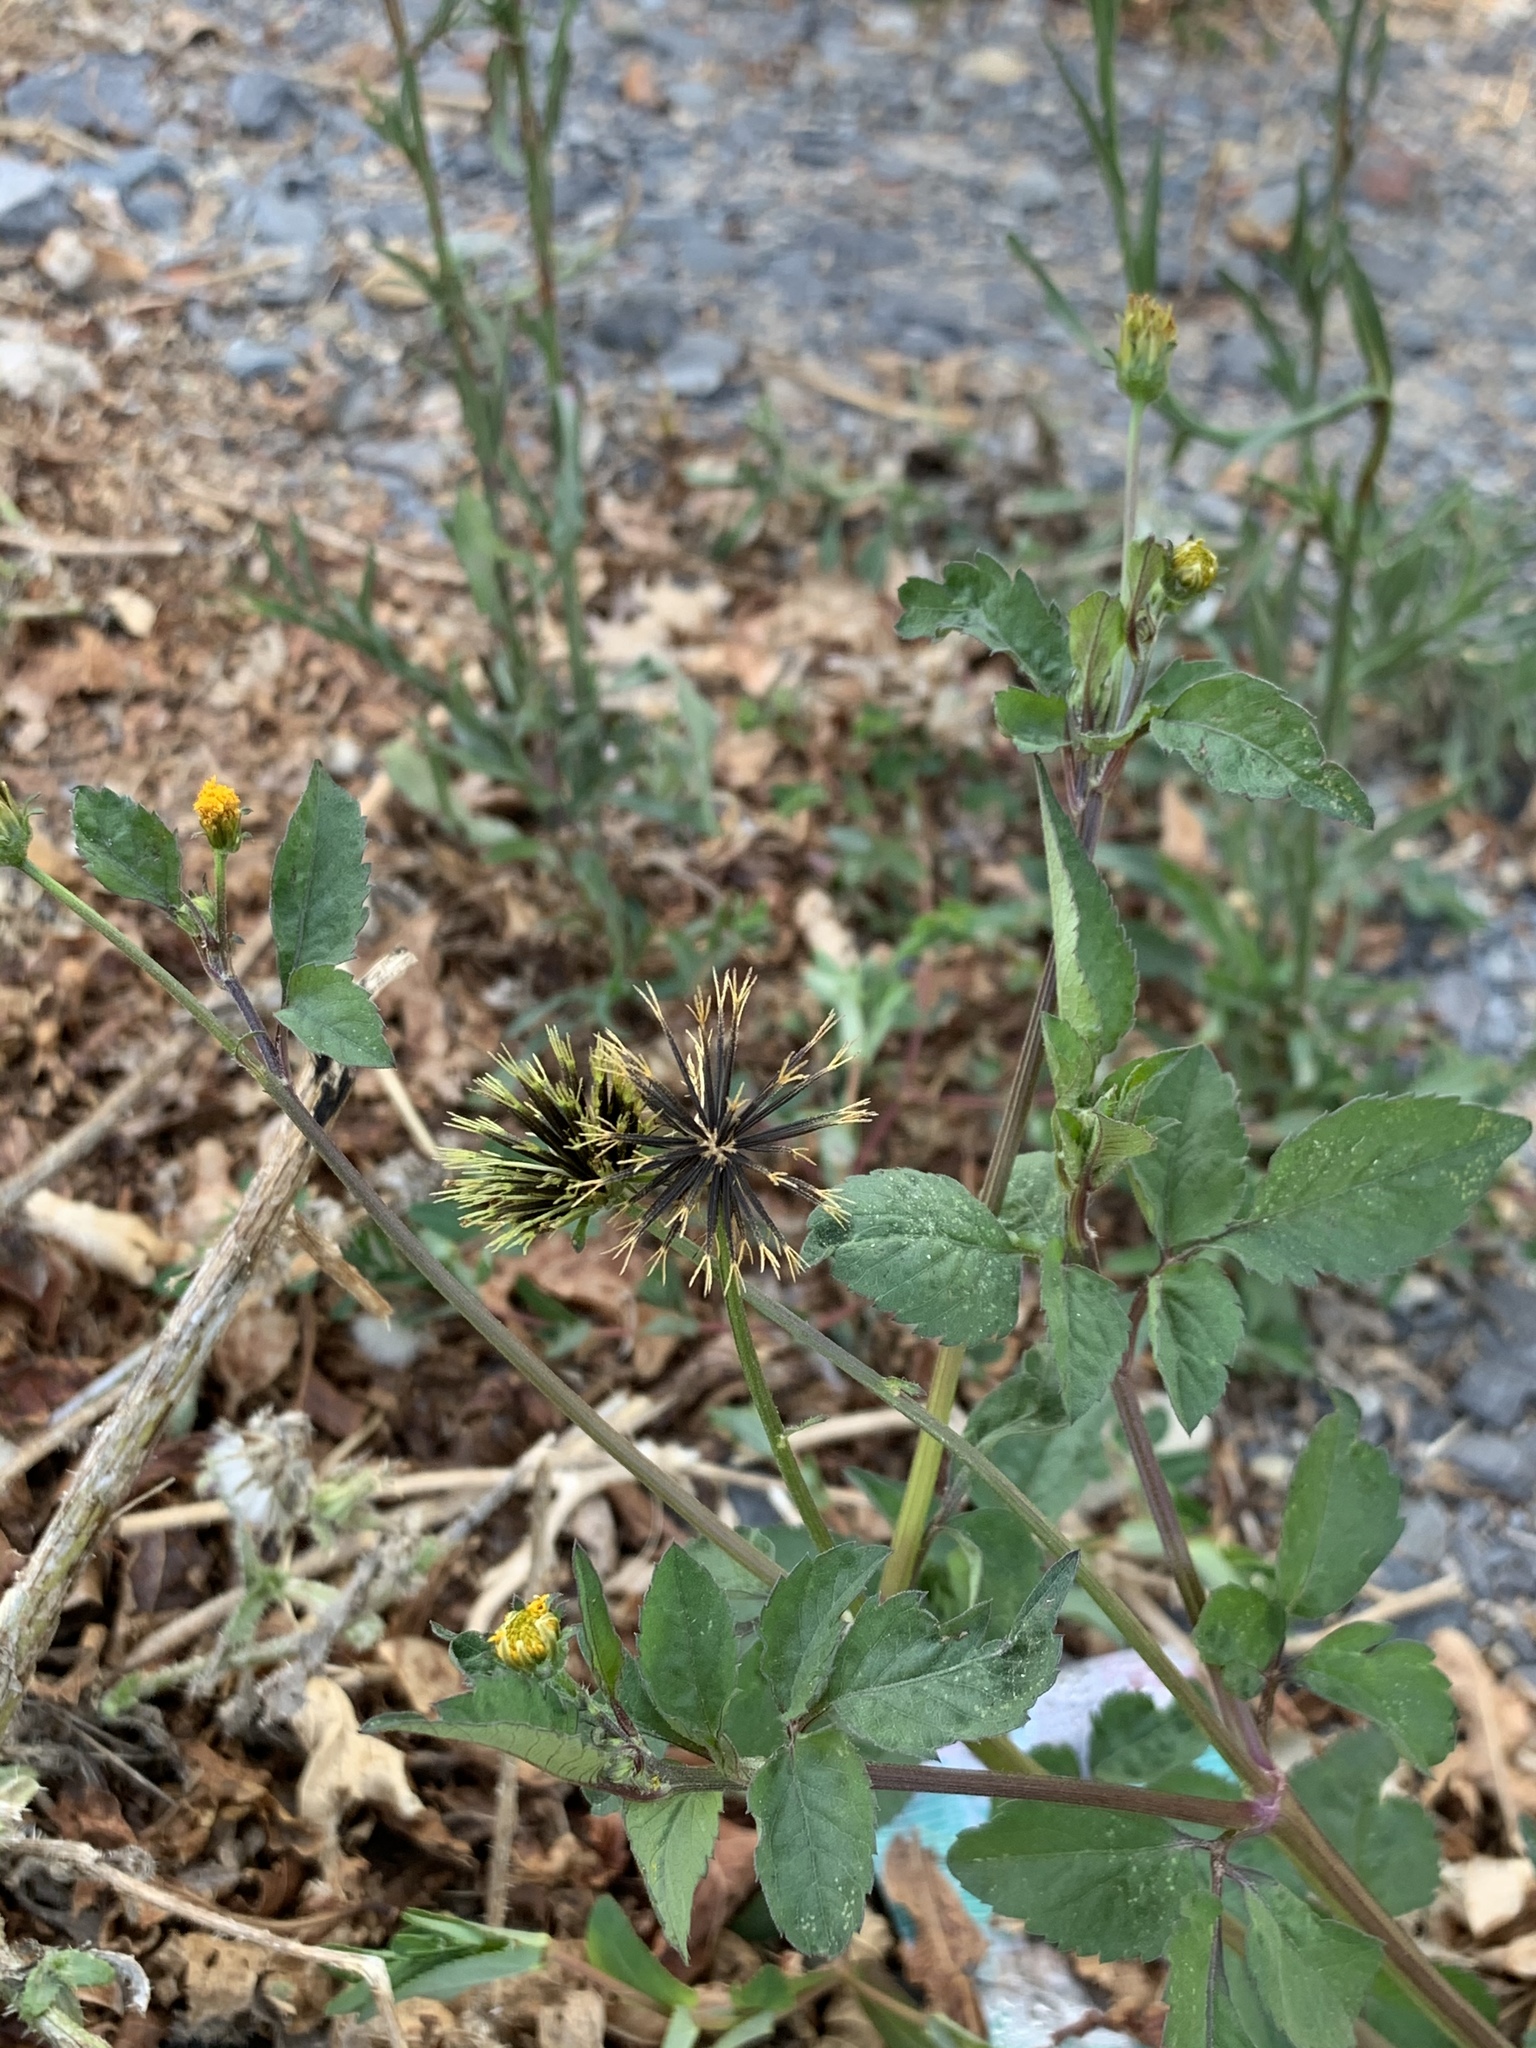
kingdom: Plantae
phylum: Tracheophyta
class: Magnoliopsida
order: Asterales
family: Asteraceae
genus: Bidens
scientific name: Bidens pilosa
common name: Black-jack
